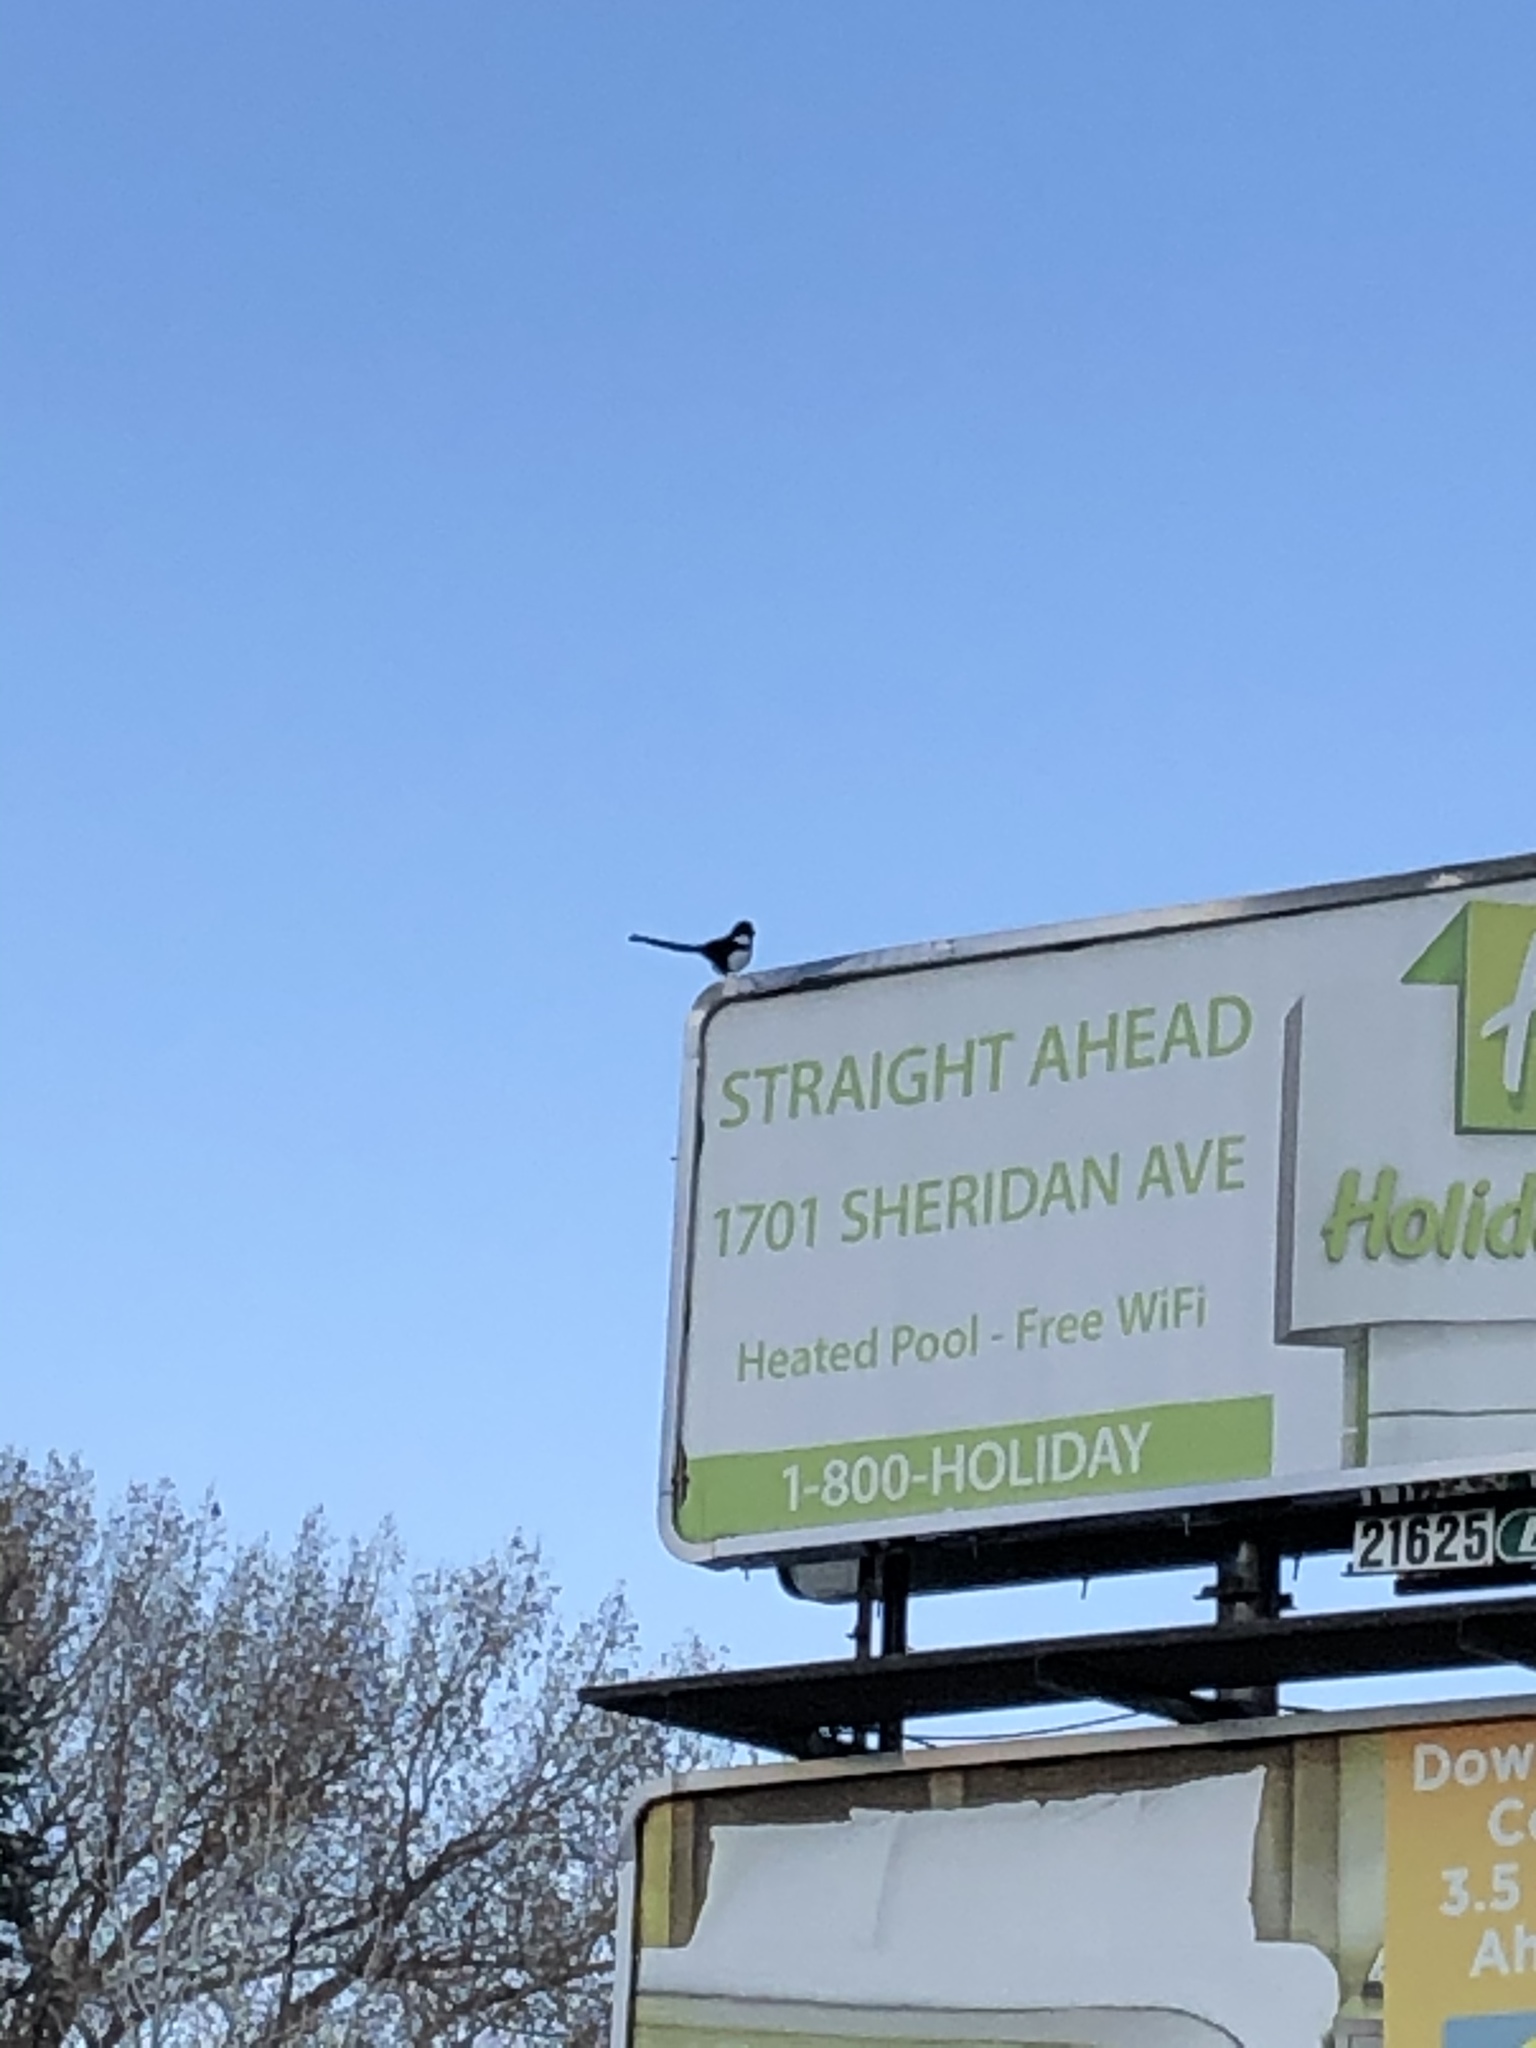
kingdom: Animalia
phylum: Chordata
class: Aves
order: Passeriformes
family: Corvidae
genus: Pica
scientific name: Pica hudsonia
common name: Black-billed magpie
